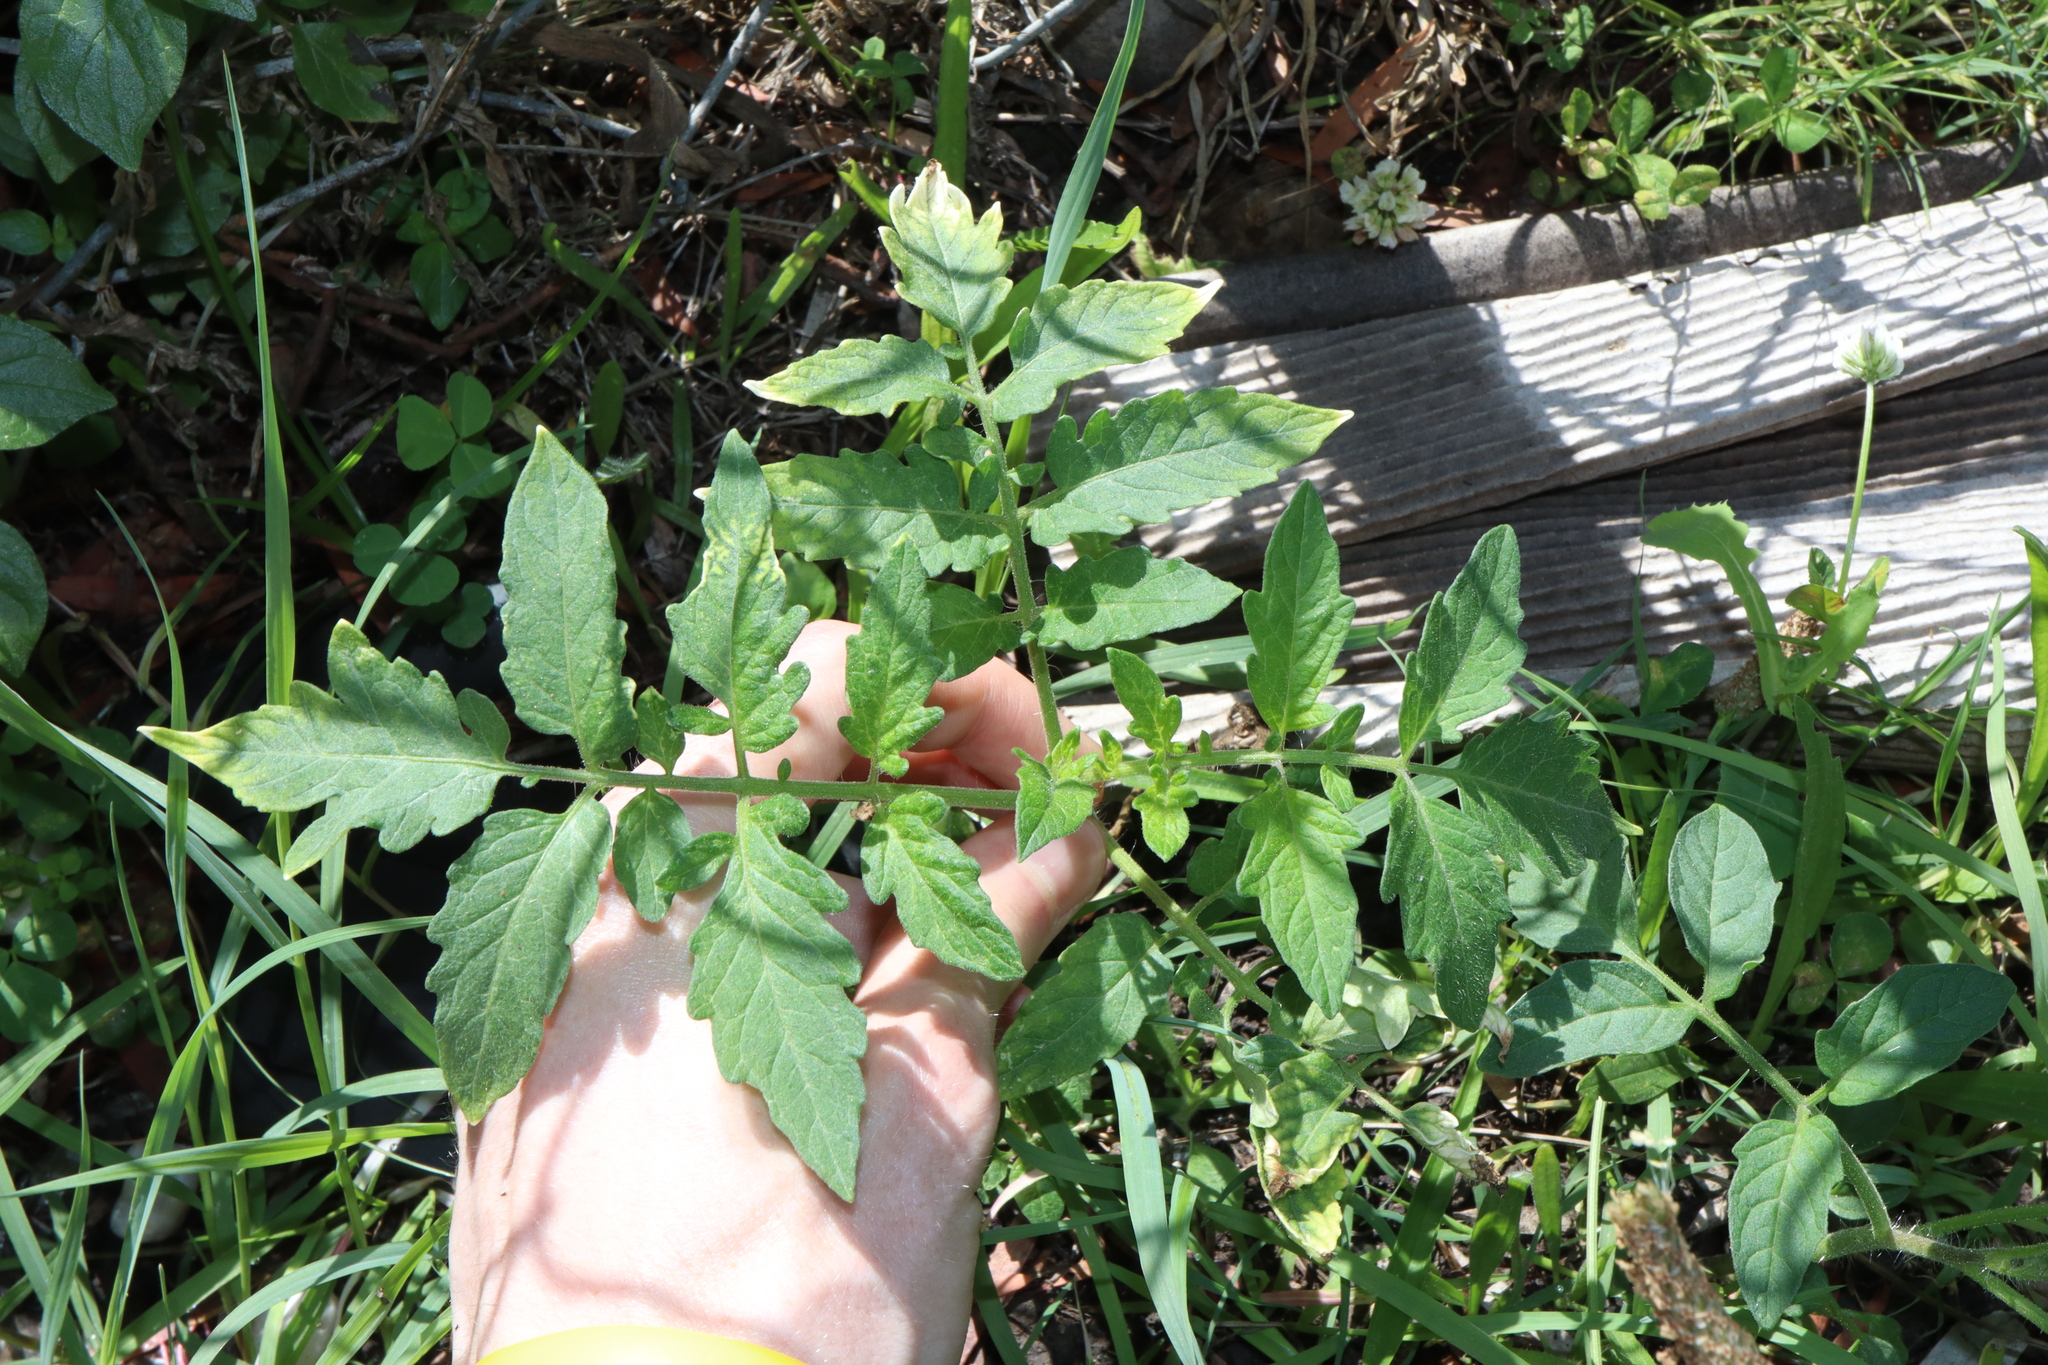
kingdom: Plantae
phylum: Tracheophyta
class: Magnoliopsida
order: Solanales
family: Solanaceae
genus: Solanum
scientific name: Solanum lycopersicum
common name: Garden tomato
